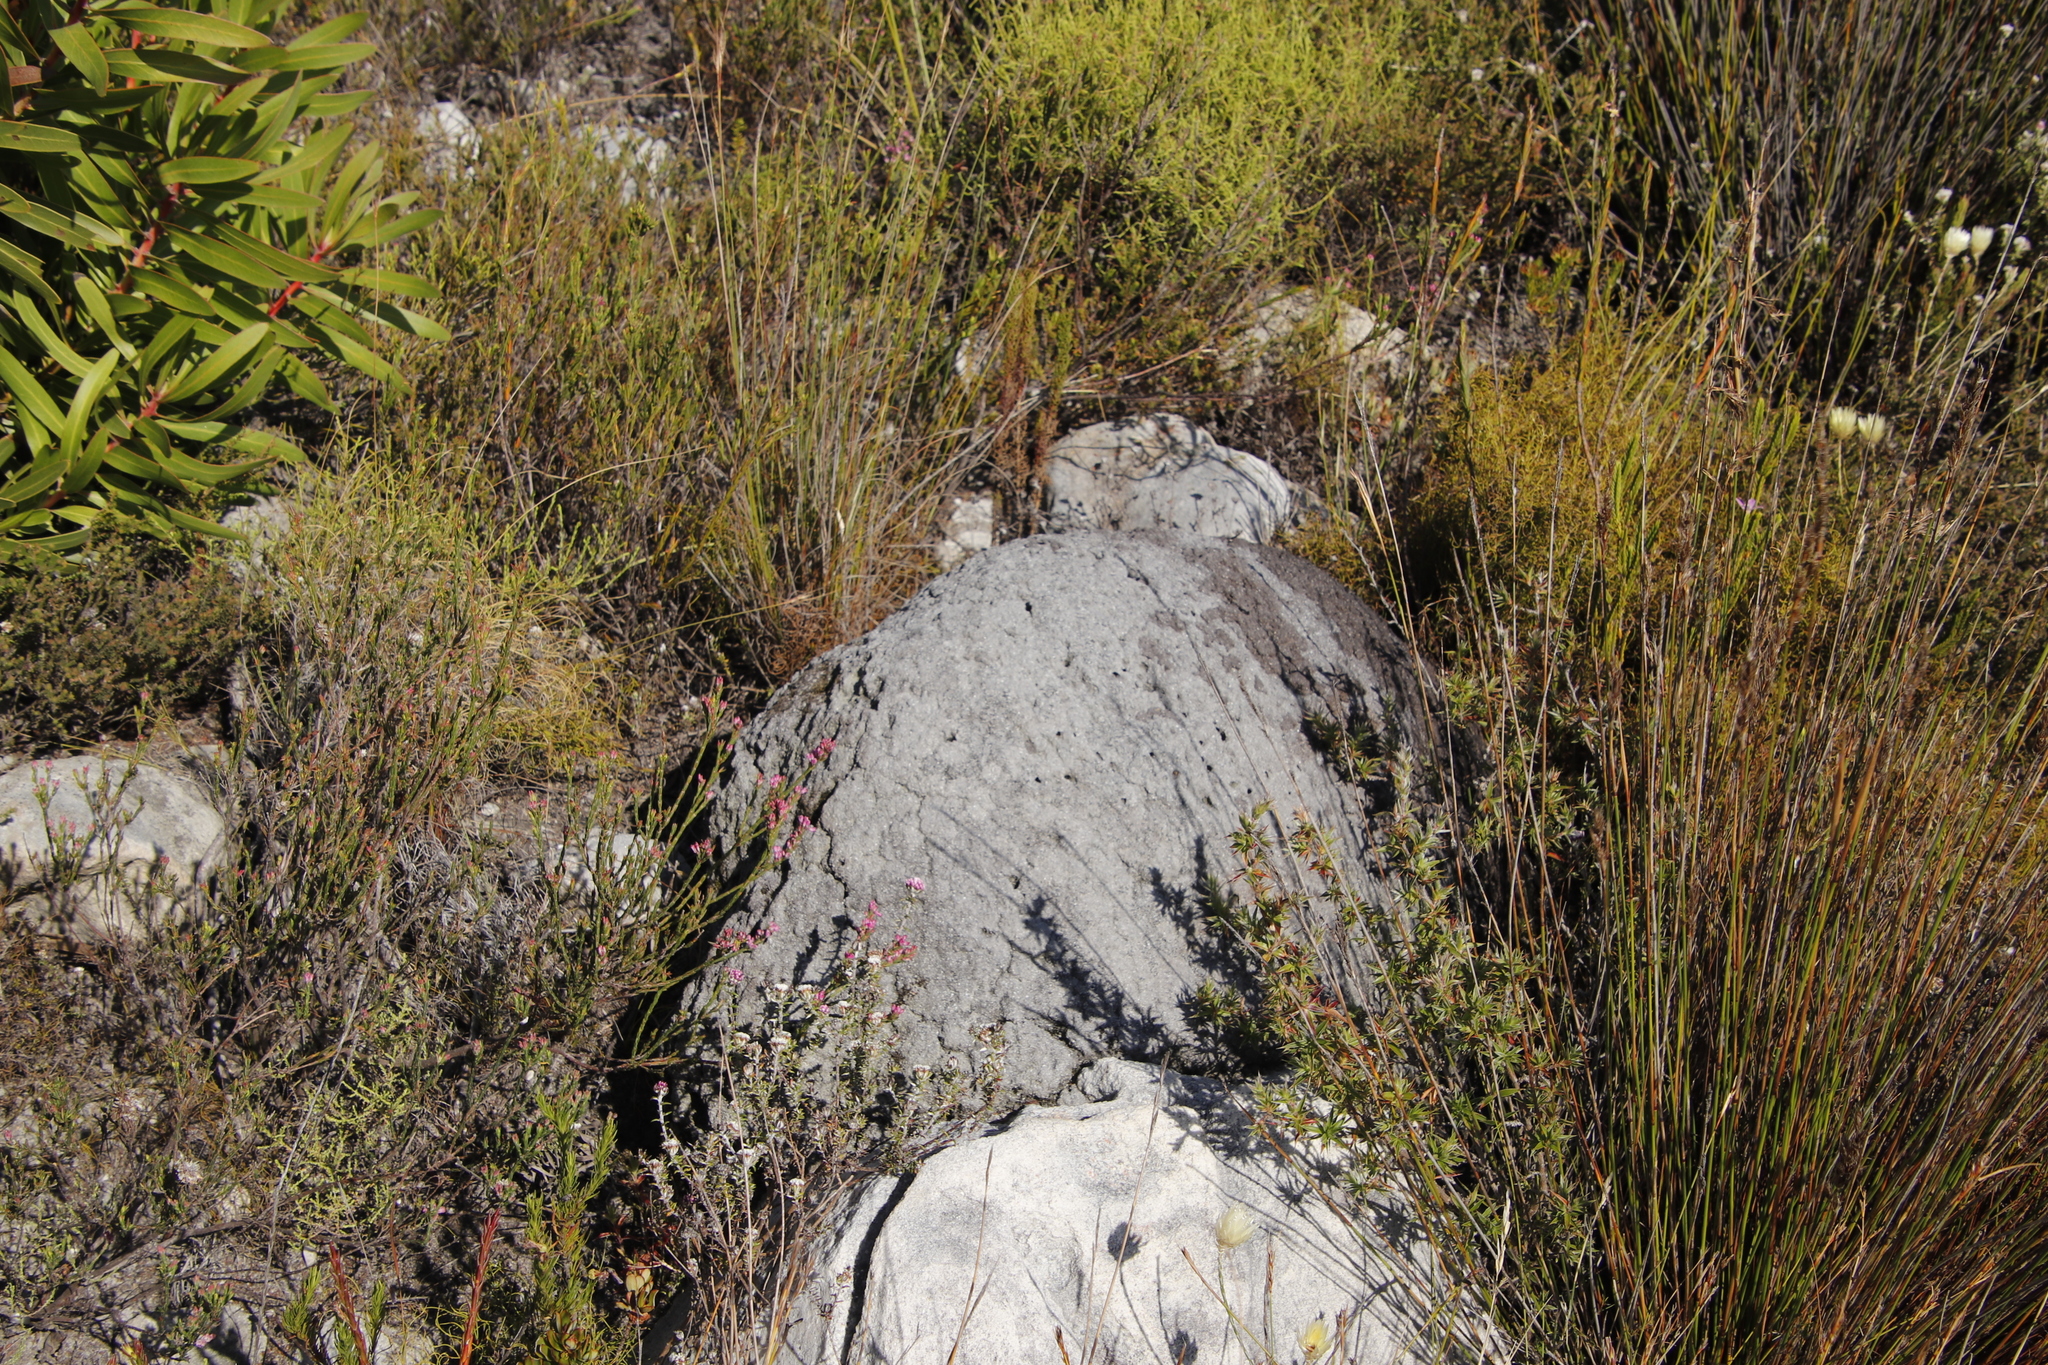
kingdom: Animalia
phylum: Arthropoda
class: Insecta
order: Blattodea
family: Termitidae
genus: Amitermes
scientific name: Amitermes hastatus
